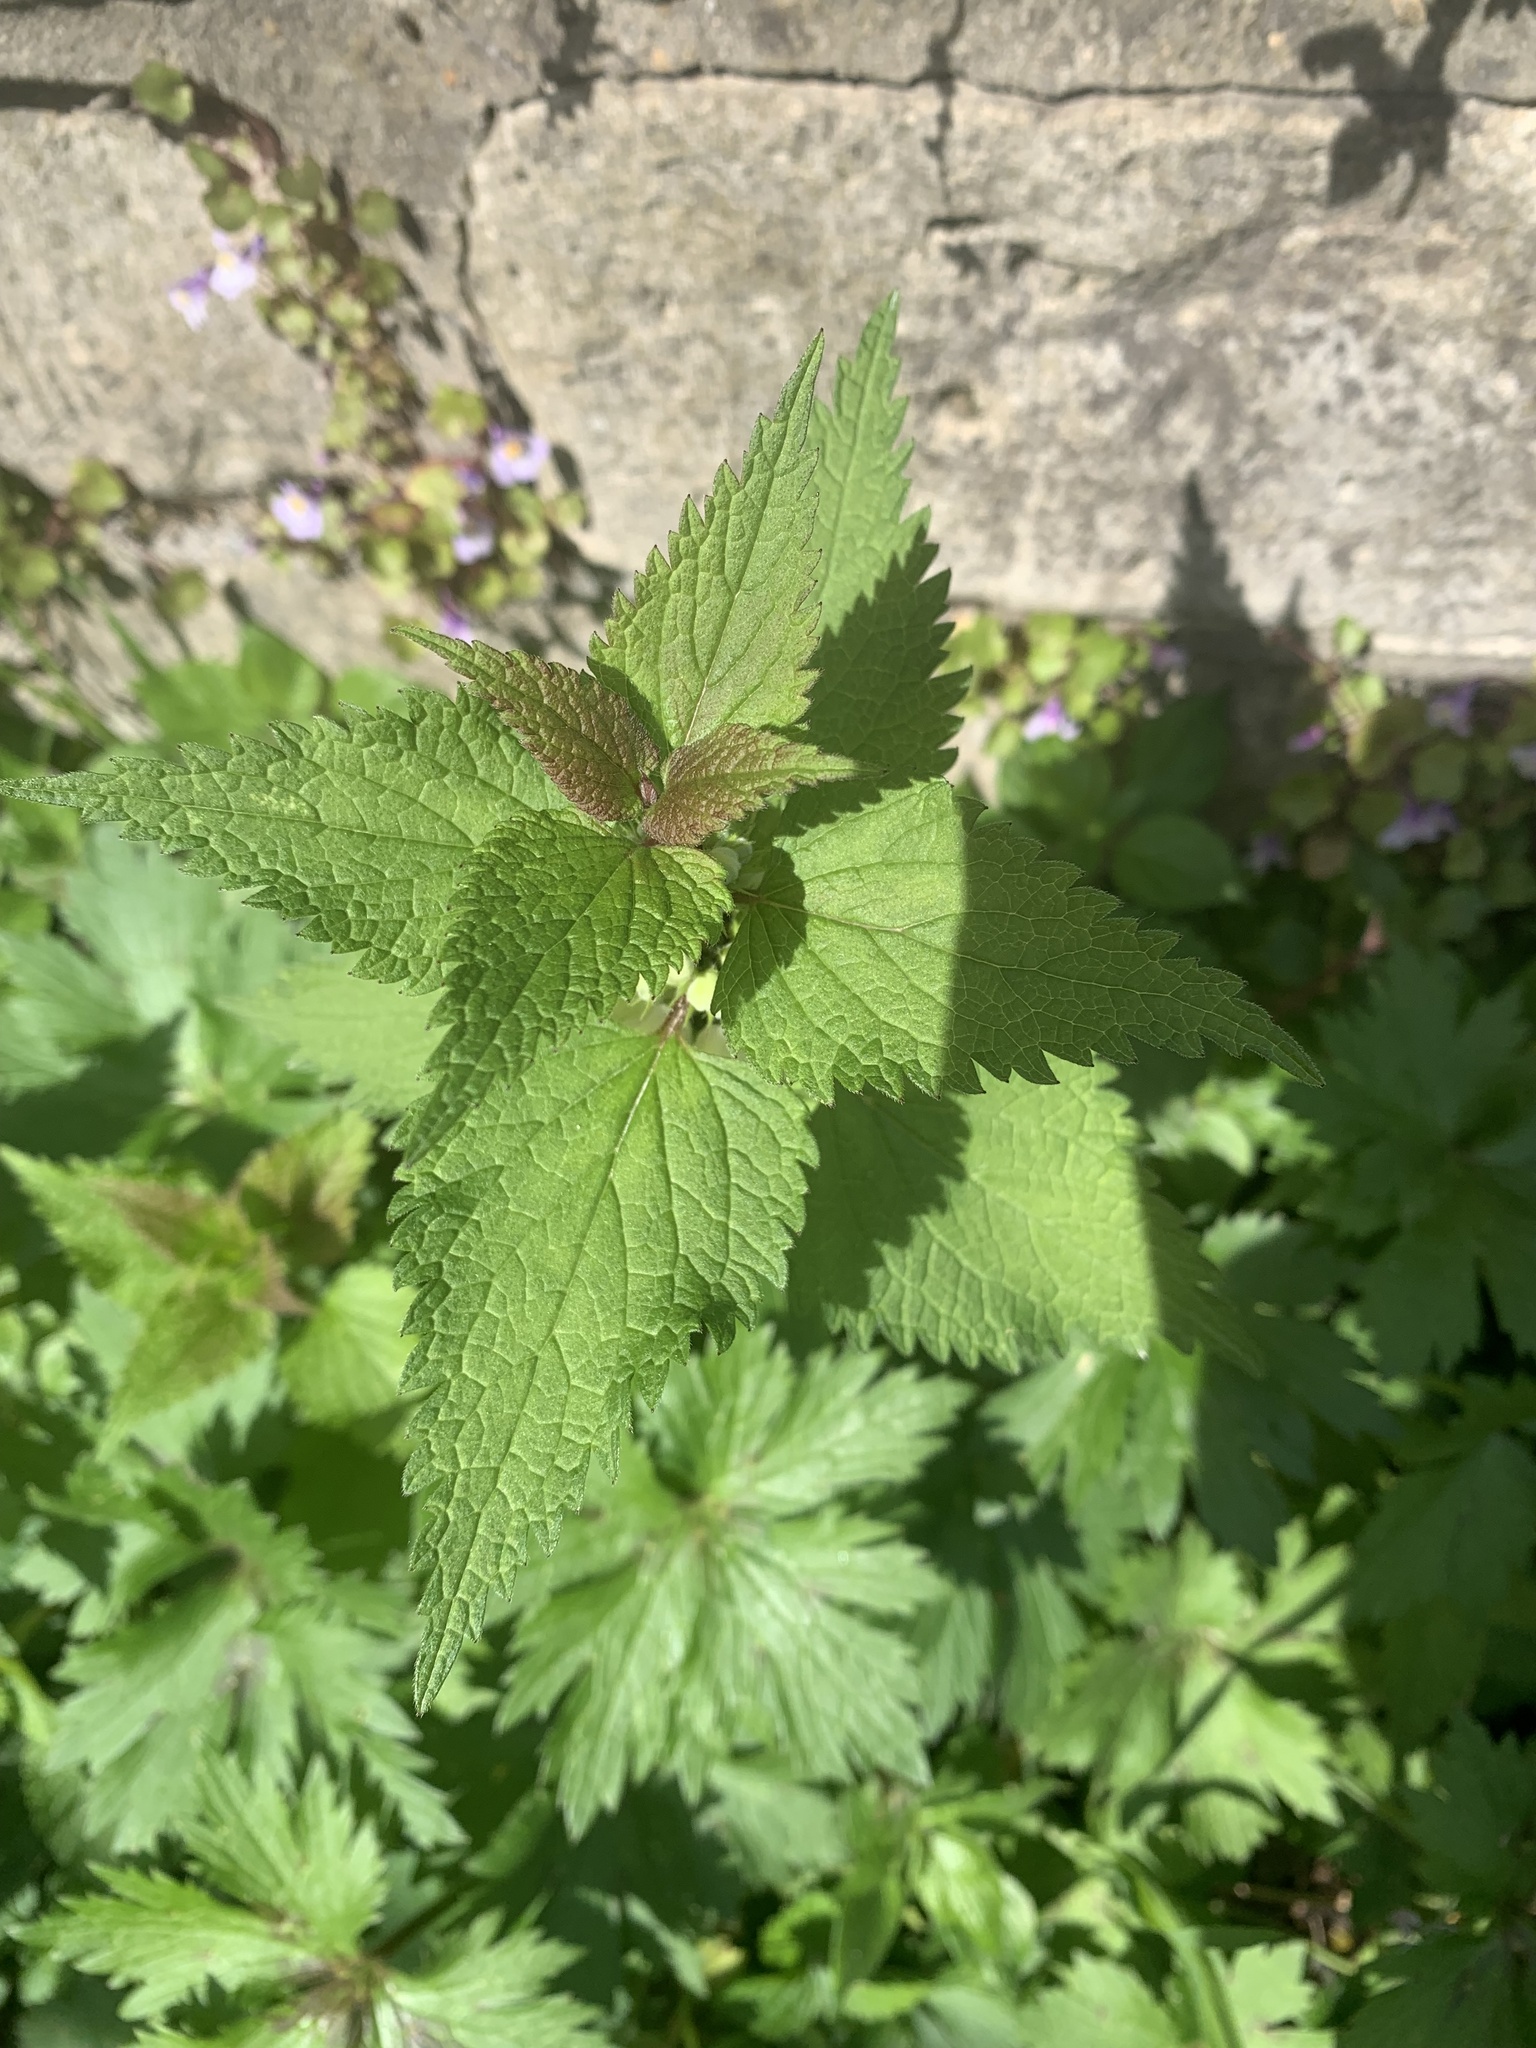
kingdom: Plantae
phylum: Tracheophyta
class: Magnoliopsida
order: Lamiales
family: Lamiaceae
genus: Lamium
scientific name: Lamium album
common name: White dead-nettle
